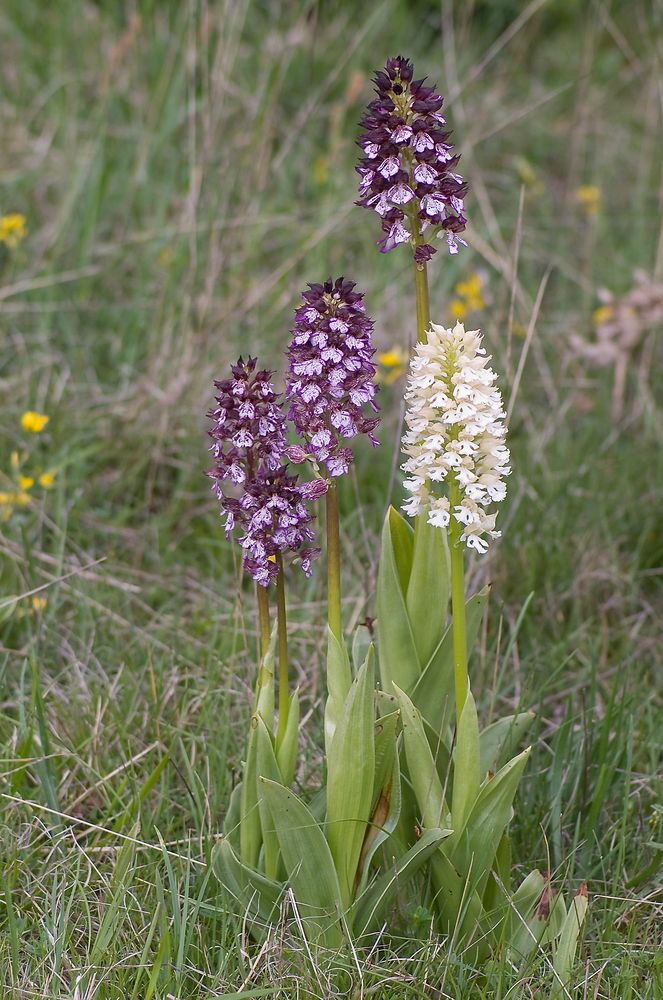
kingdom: Plantae
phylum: Tracheophyta
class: Liliopsida
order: Asparagales
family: Orchidaceae
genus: Orchis
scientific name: Orchis purpurea
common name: Lady orchid
